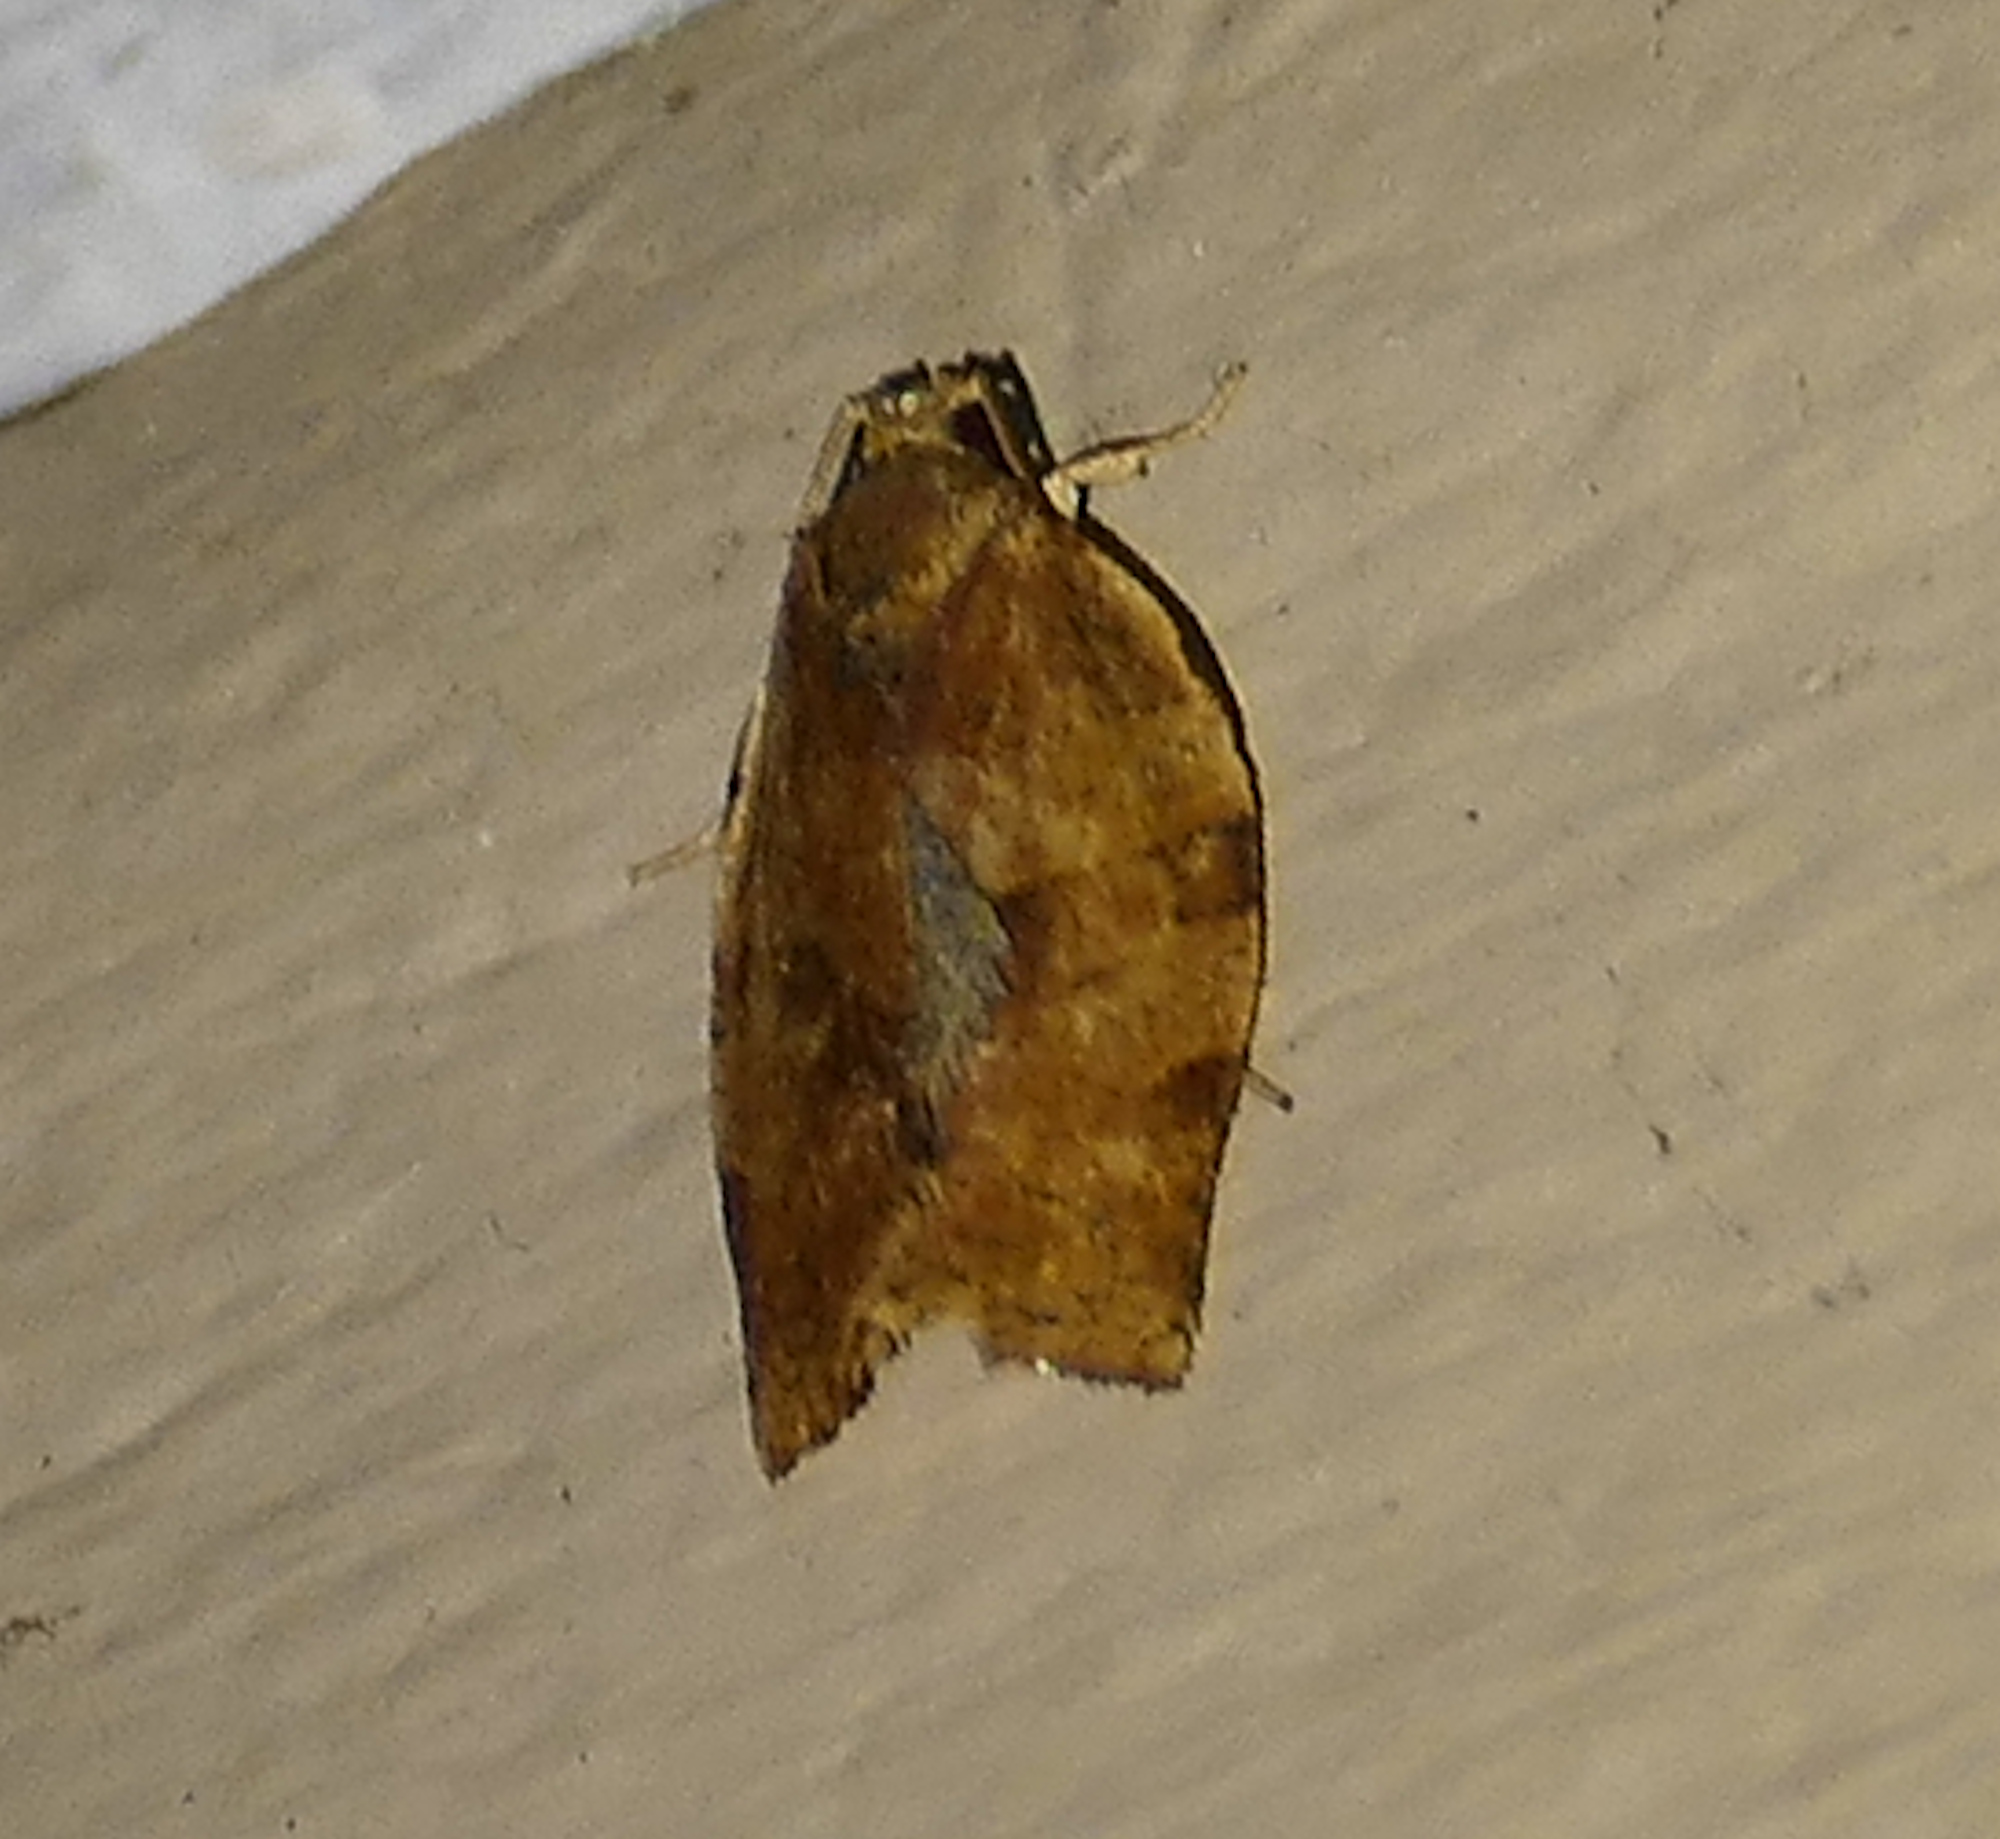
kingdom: Animalia
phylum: Arthropoda
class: Insecta
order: Lepidoptera
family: Tortricidae
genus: Choristoneura
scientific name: Choristoneura rosaceana
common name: Oblique-banded leafroller moth
